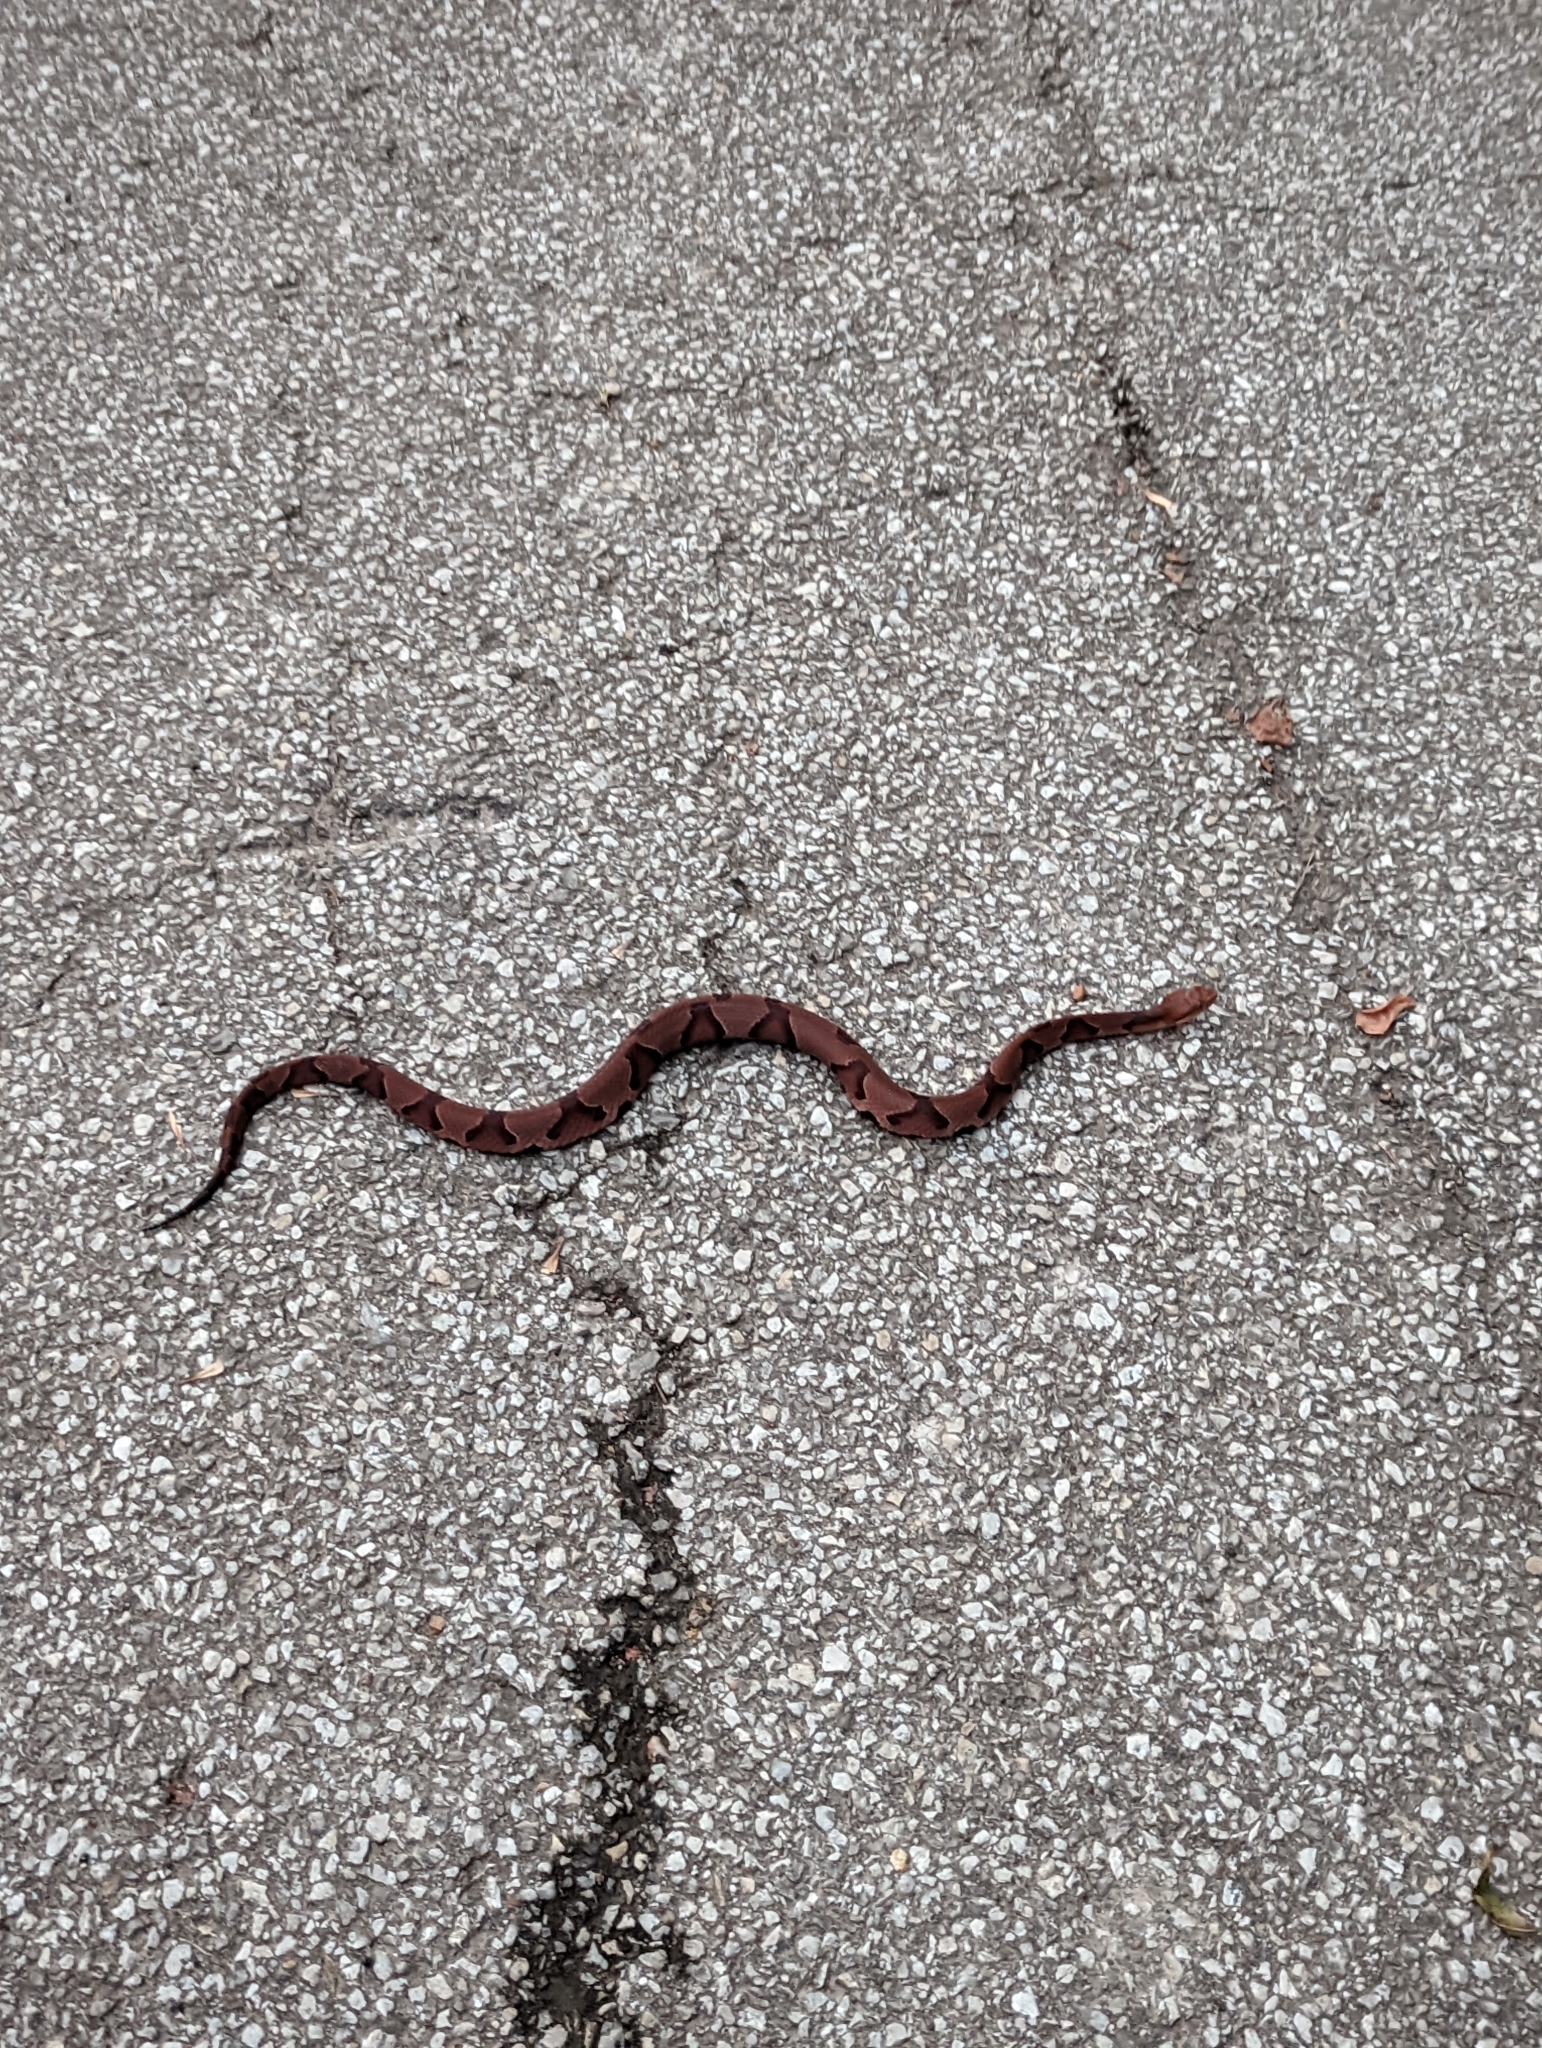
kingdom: Animalia
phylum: Chordata
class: Squamata
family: Viperidae
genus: Agkistrodon
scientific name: Agkistrodon contortrix
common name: Northern copperhead
